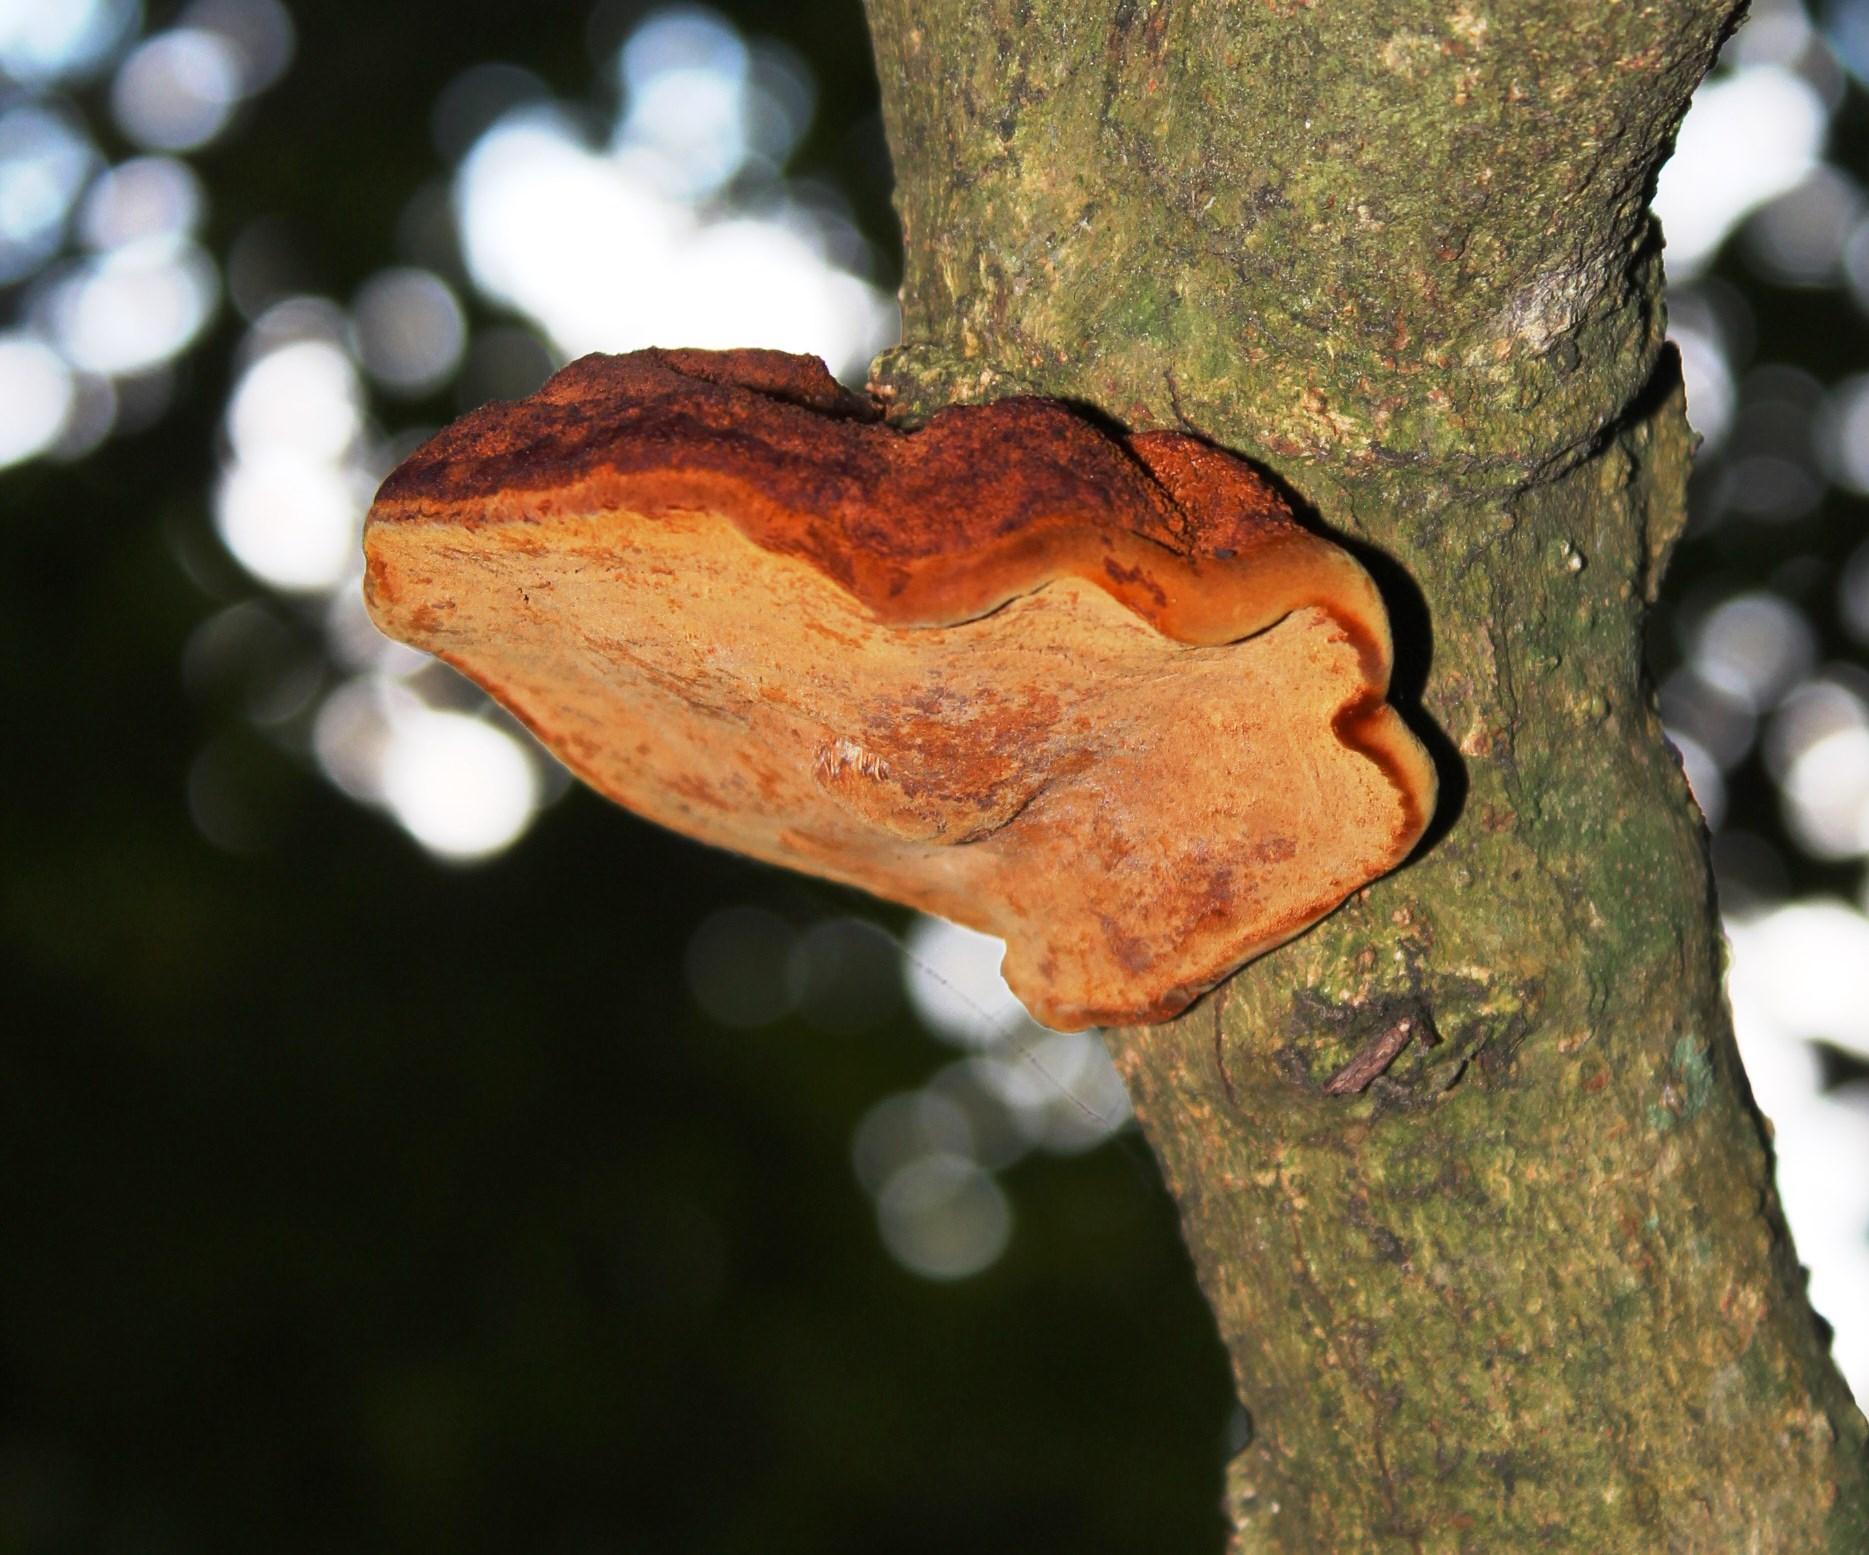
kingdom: Fungi
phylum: Basidiomycota
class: Agaricomycetes
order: Hymenochaetales
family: Hymenochaetaceae
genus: Inonotus
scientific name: Inonotus hispidus
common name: Shaggy bracket
